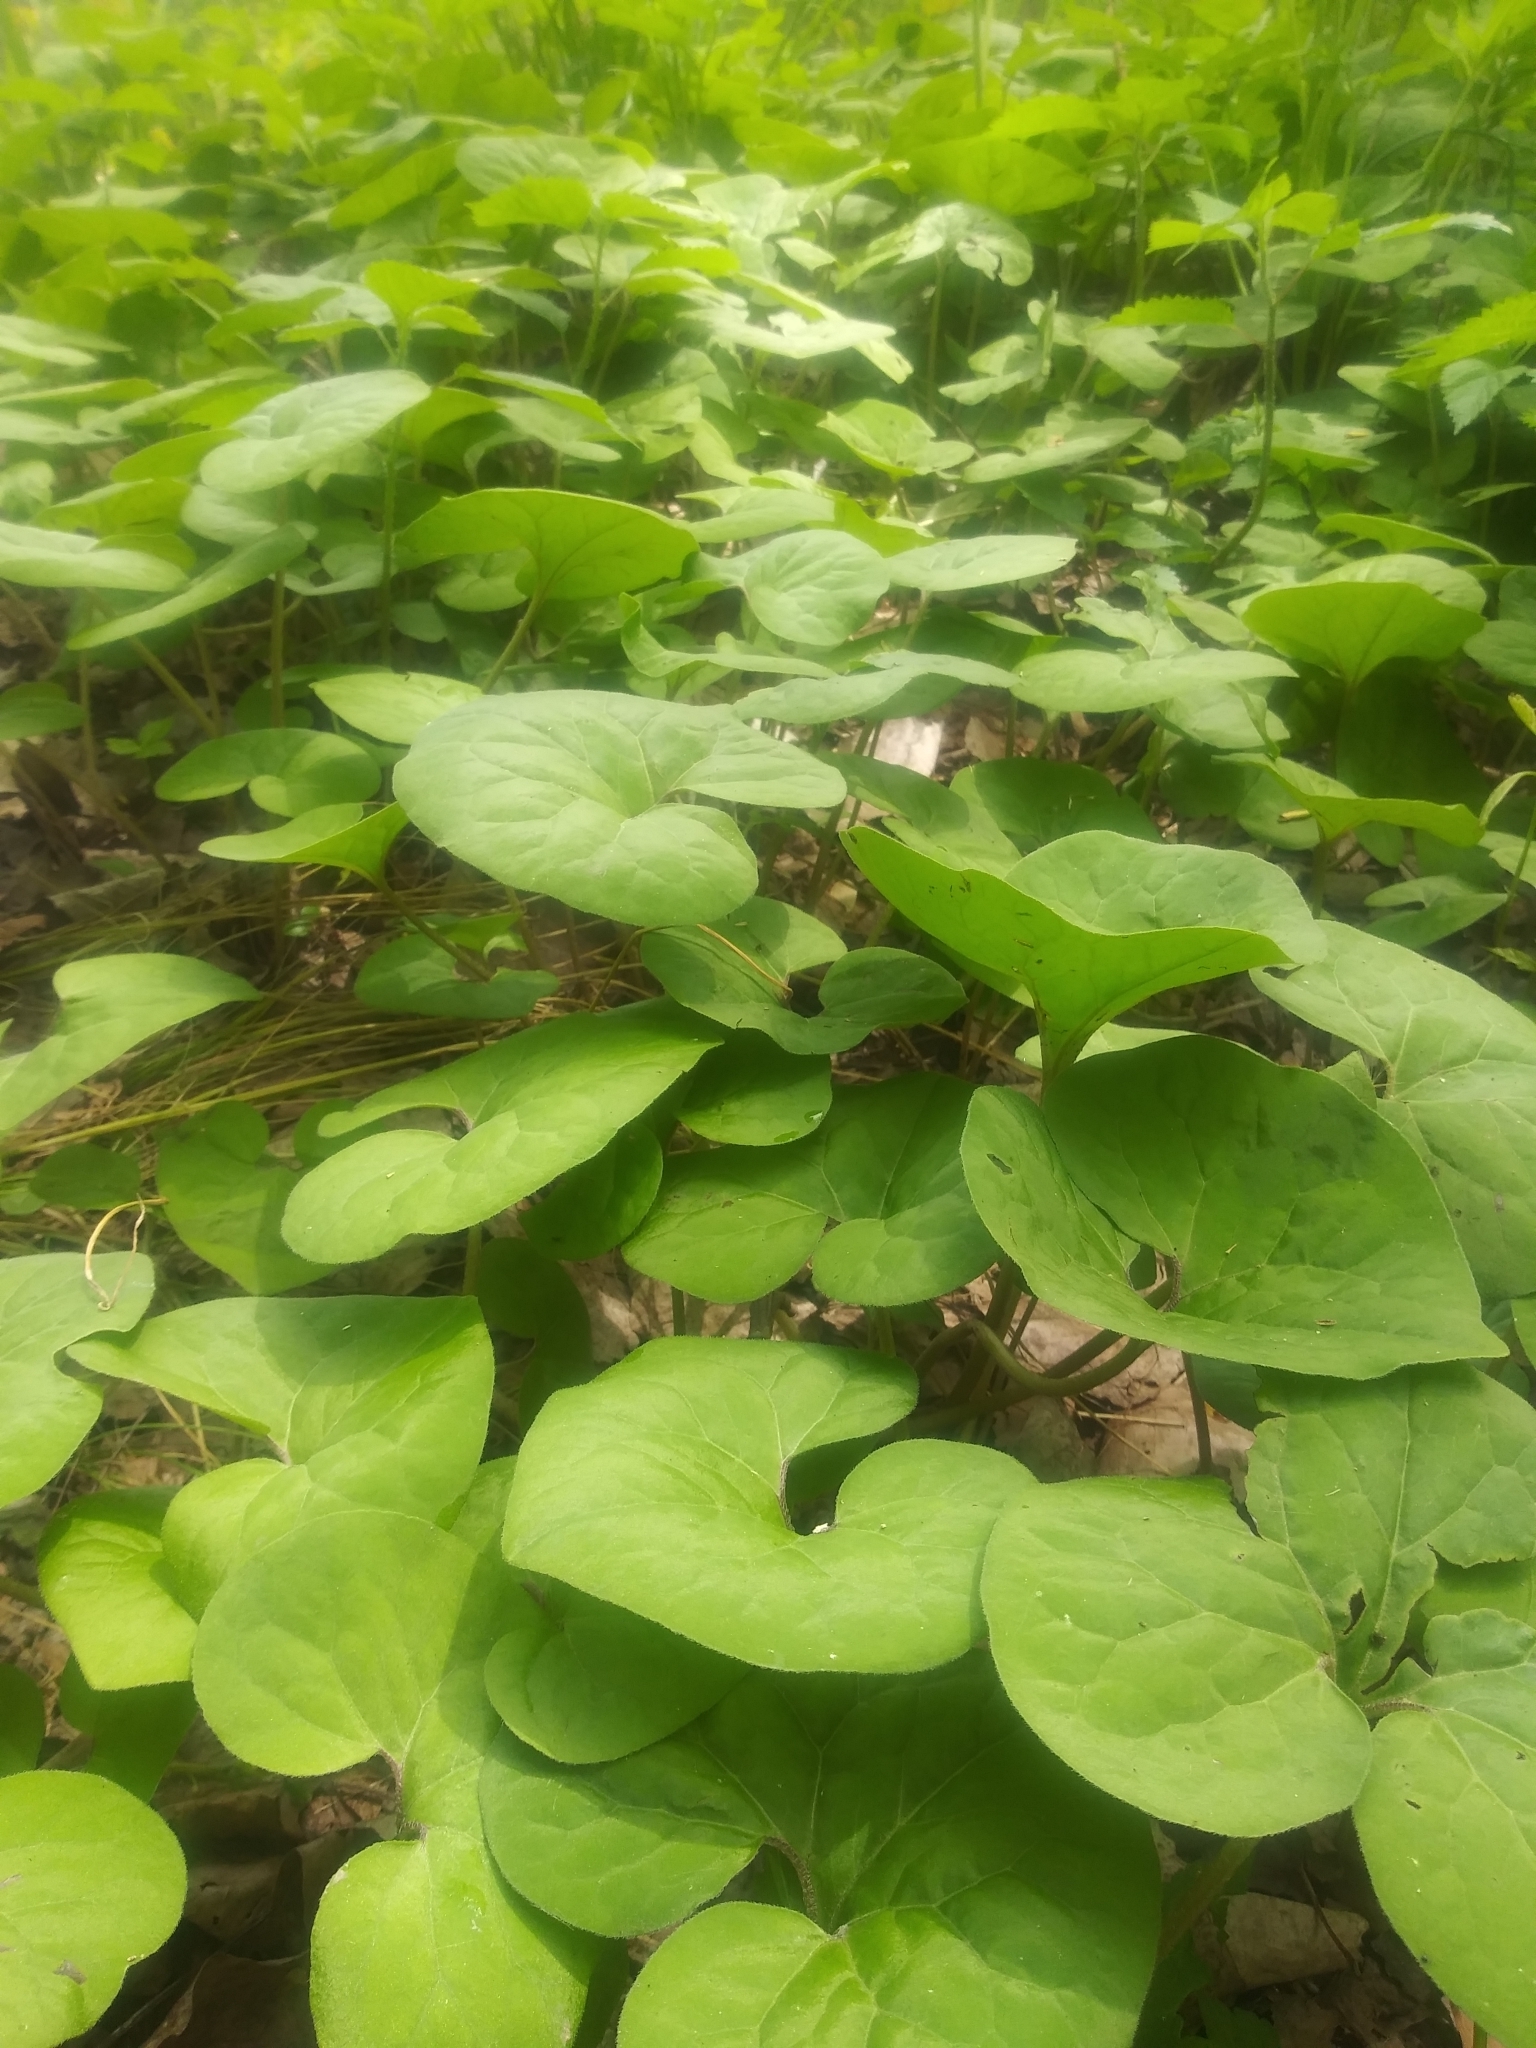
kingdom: Plantae
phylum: Tracheophyta
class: Magnoliopsida
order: Piperales
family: Aristolochiaceae
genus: Asarum
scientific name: Asarum canadense
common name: Wild ginger
